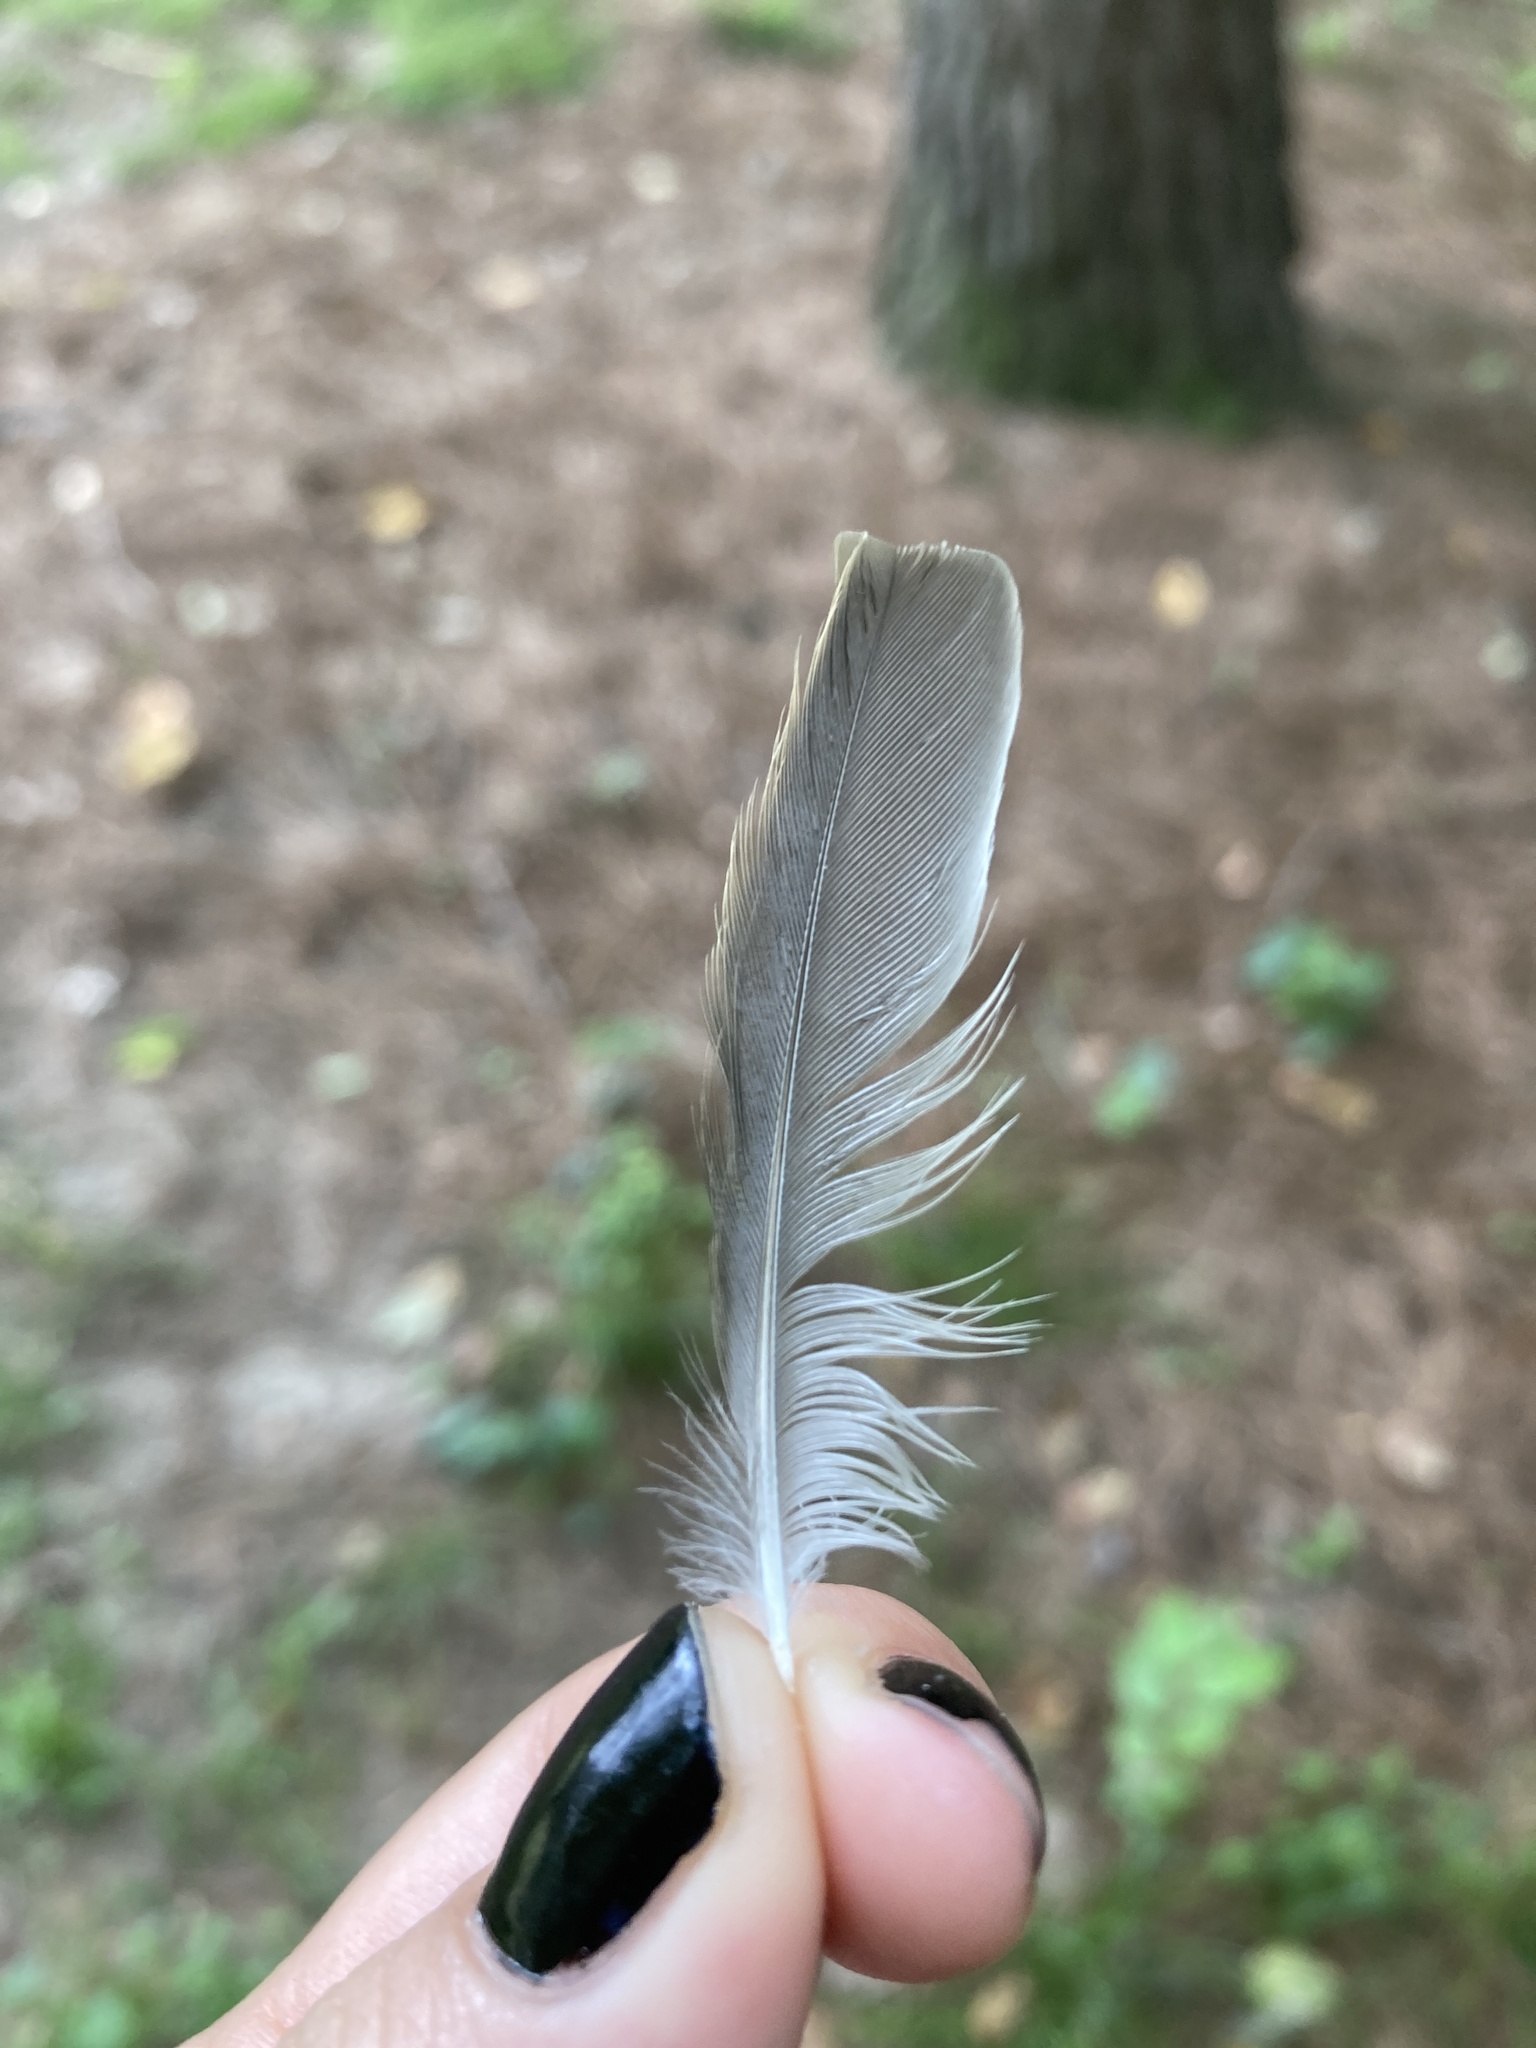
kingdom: Animalia
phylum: Chordata
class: Aves
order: Passeriformes
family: Passeridae
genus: Passer
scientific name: Passer domesticus
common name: House sparrow
